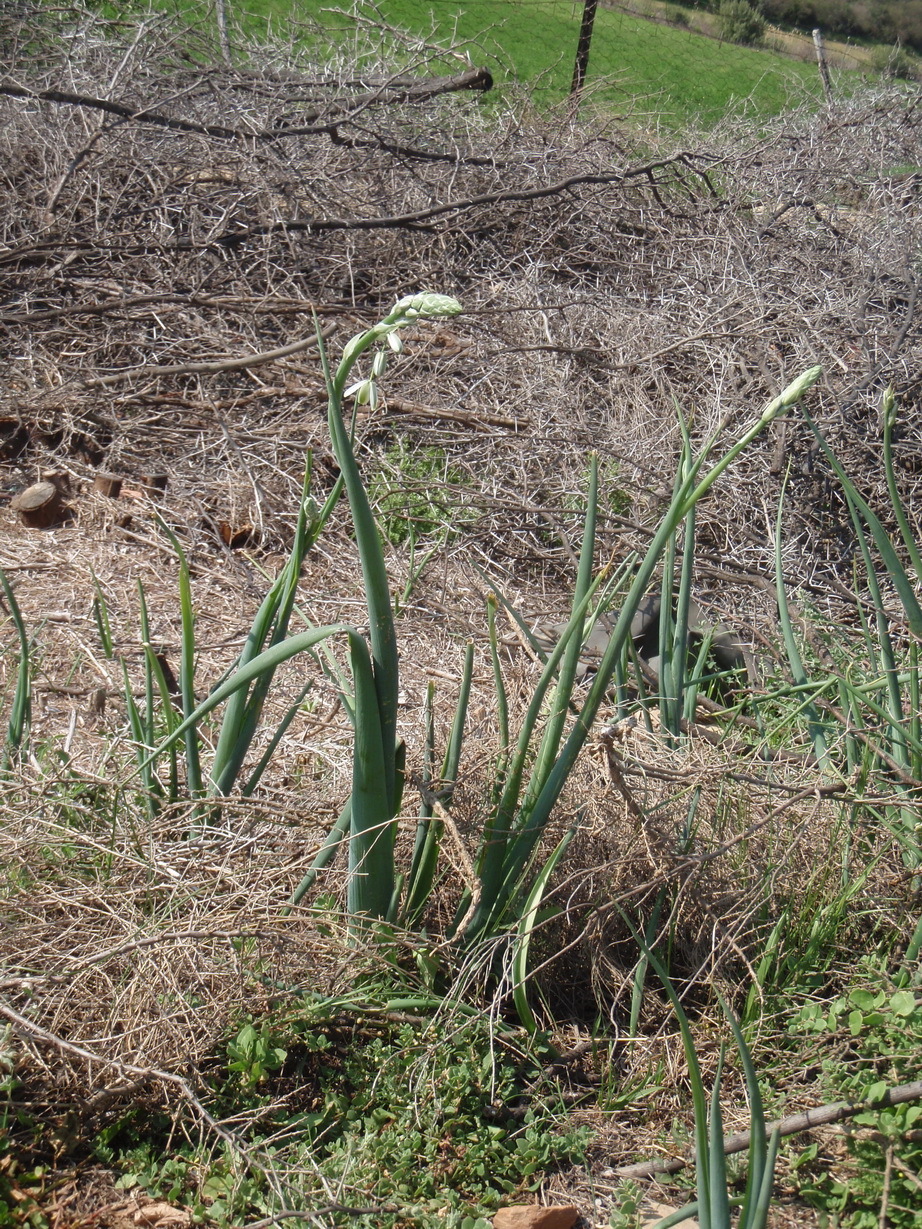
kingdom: Plantae
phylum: Tracheophyta
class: Liliopsida
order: Asparagales
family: Asparagaceae
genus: Albuca
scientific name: Albuca canadensis
